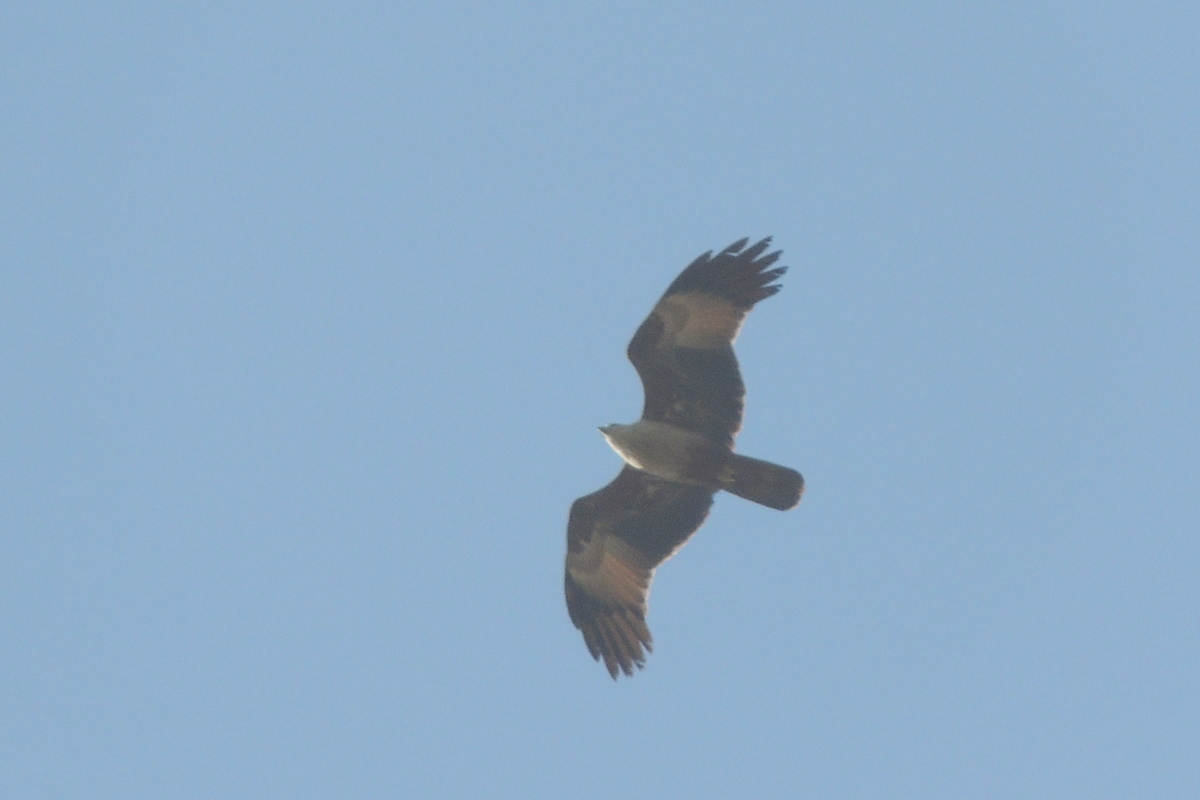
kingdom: Animalia
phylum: Chordata
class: Aves
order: Accipitriformes
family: Accipitridae
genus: Haliastur
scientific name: Haliastur indus
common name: Brahminy kite
